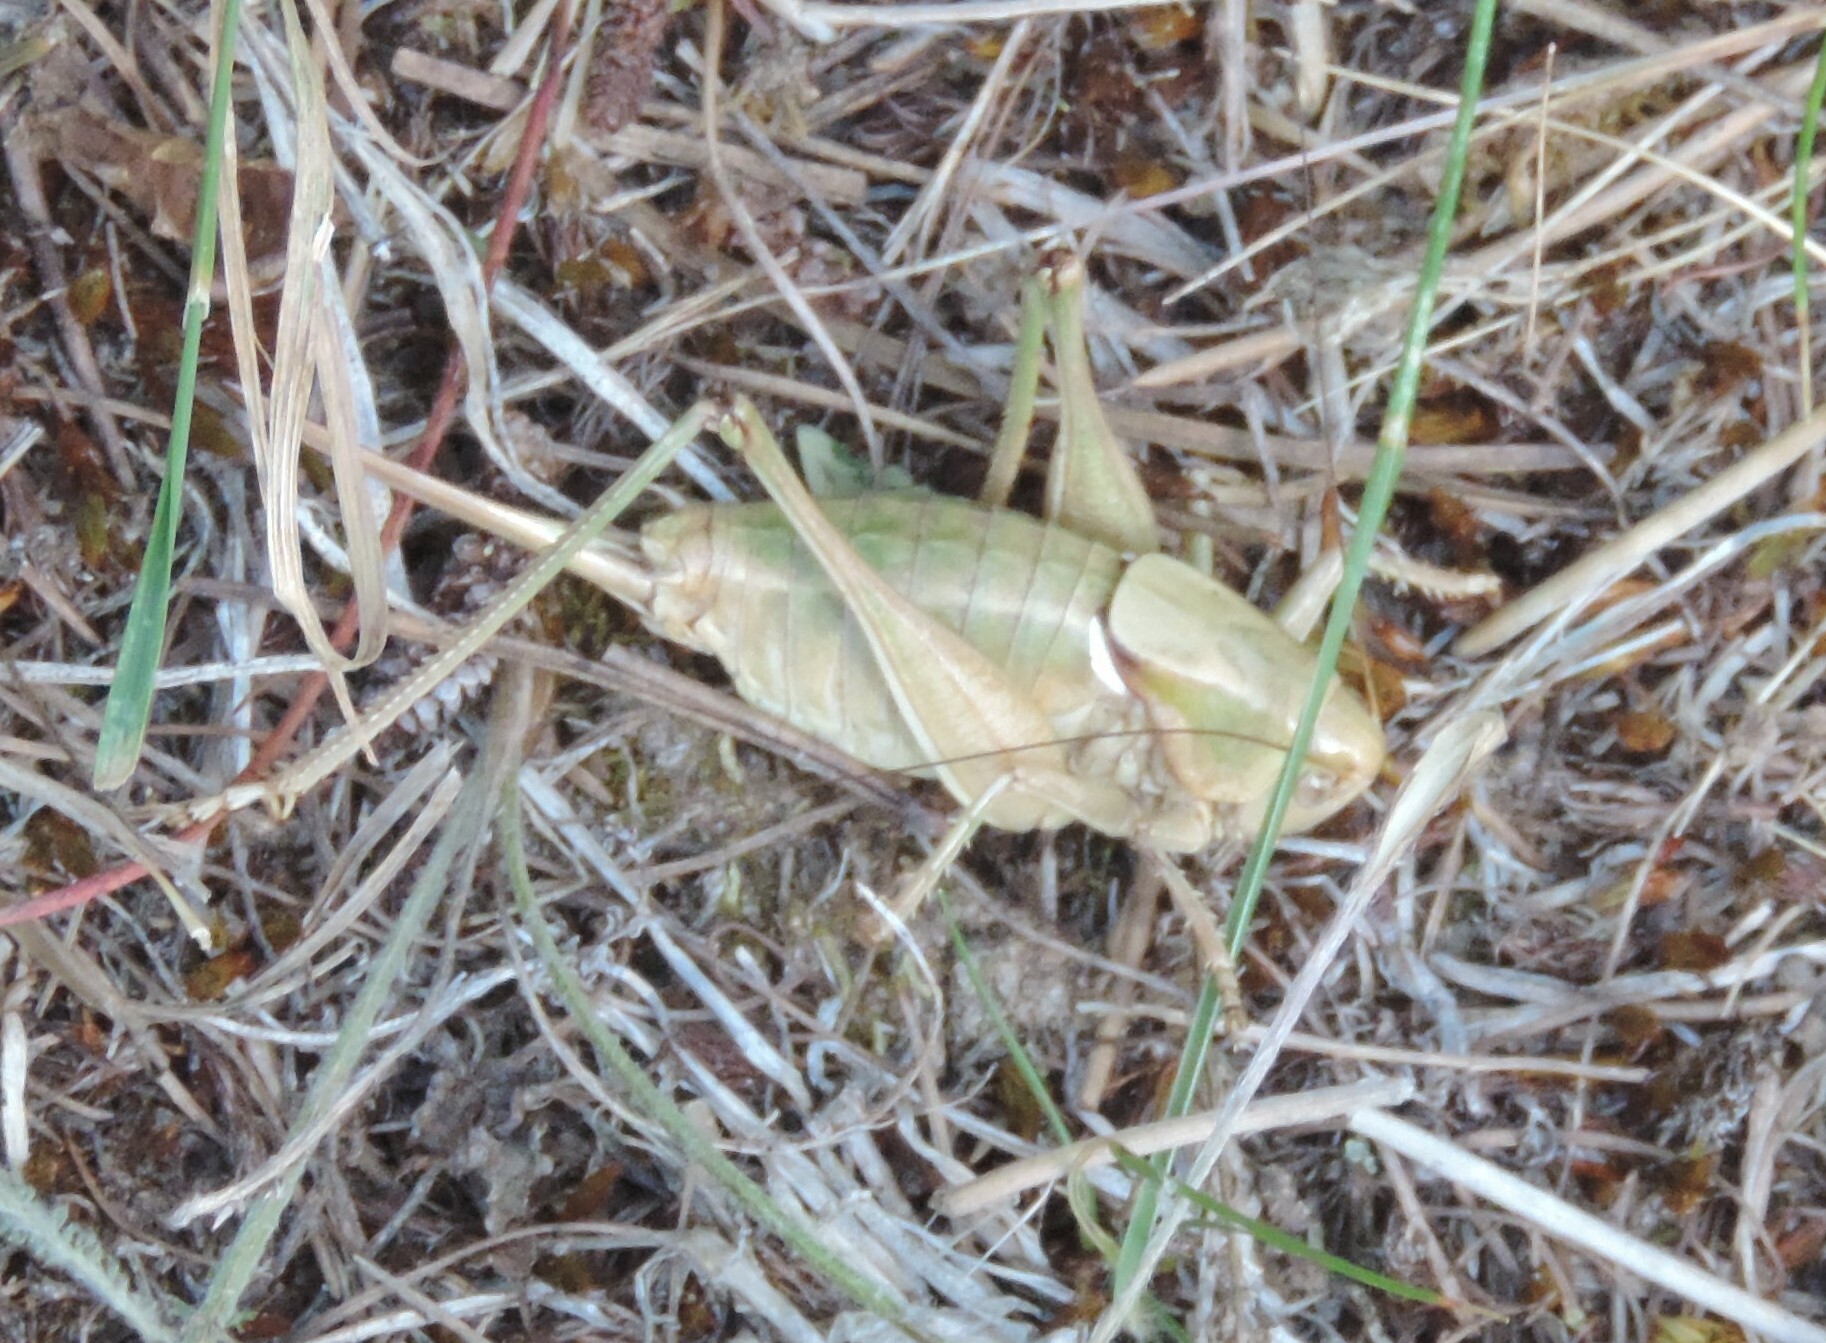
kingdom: Animalia
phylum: Arthropoda
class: Insecta
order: Orthoptera
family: Tettigoniidae
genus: Anabrus
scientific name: Anabrus longipes
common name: Long-legged anabrus
